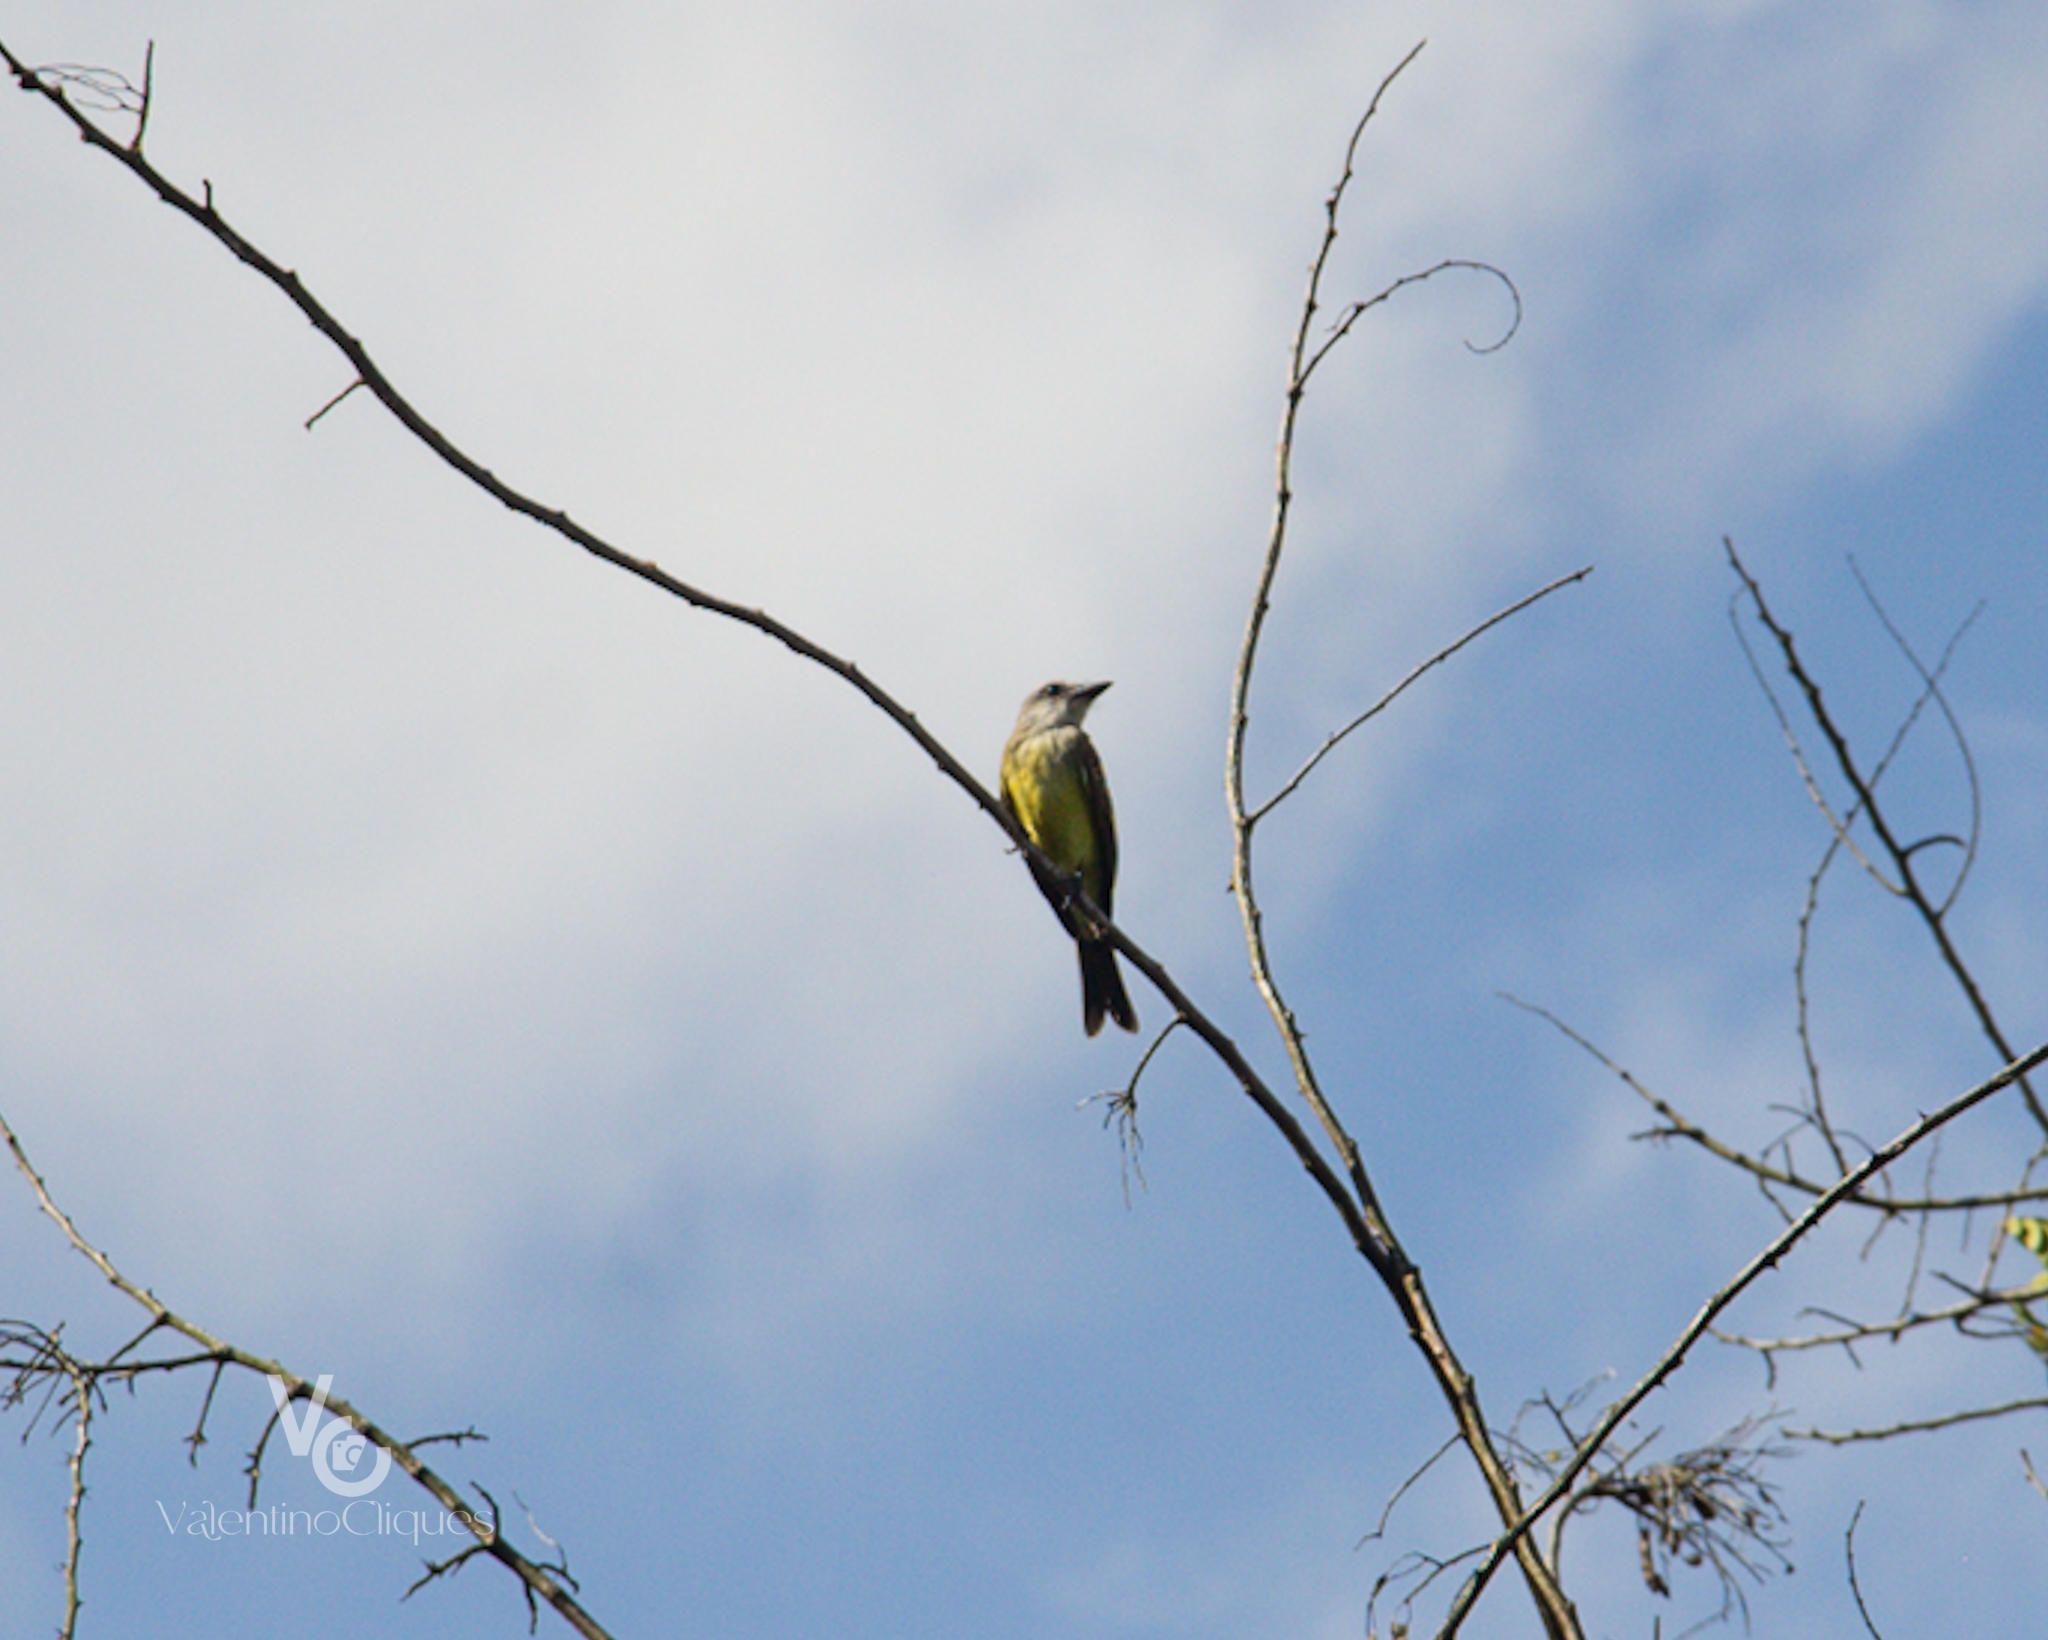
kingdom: Animalia
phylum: Chordata
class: Aves
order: Passeriformes
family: Tyrannidae
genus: Tyrannus
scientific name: Tyrannus melancholicus
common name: Tropical kingbird
